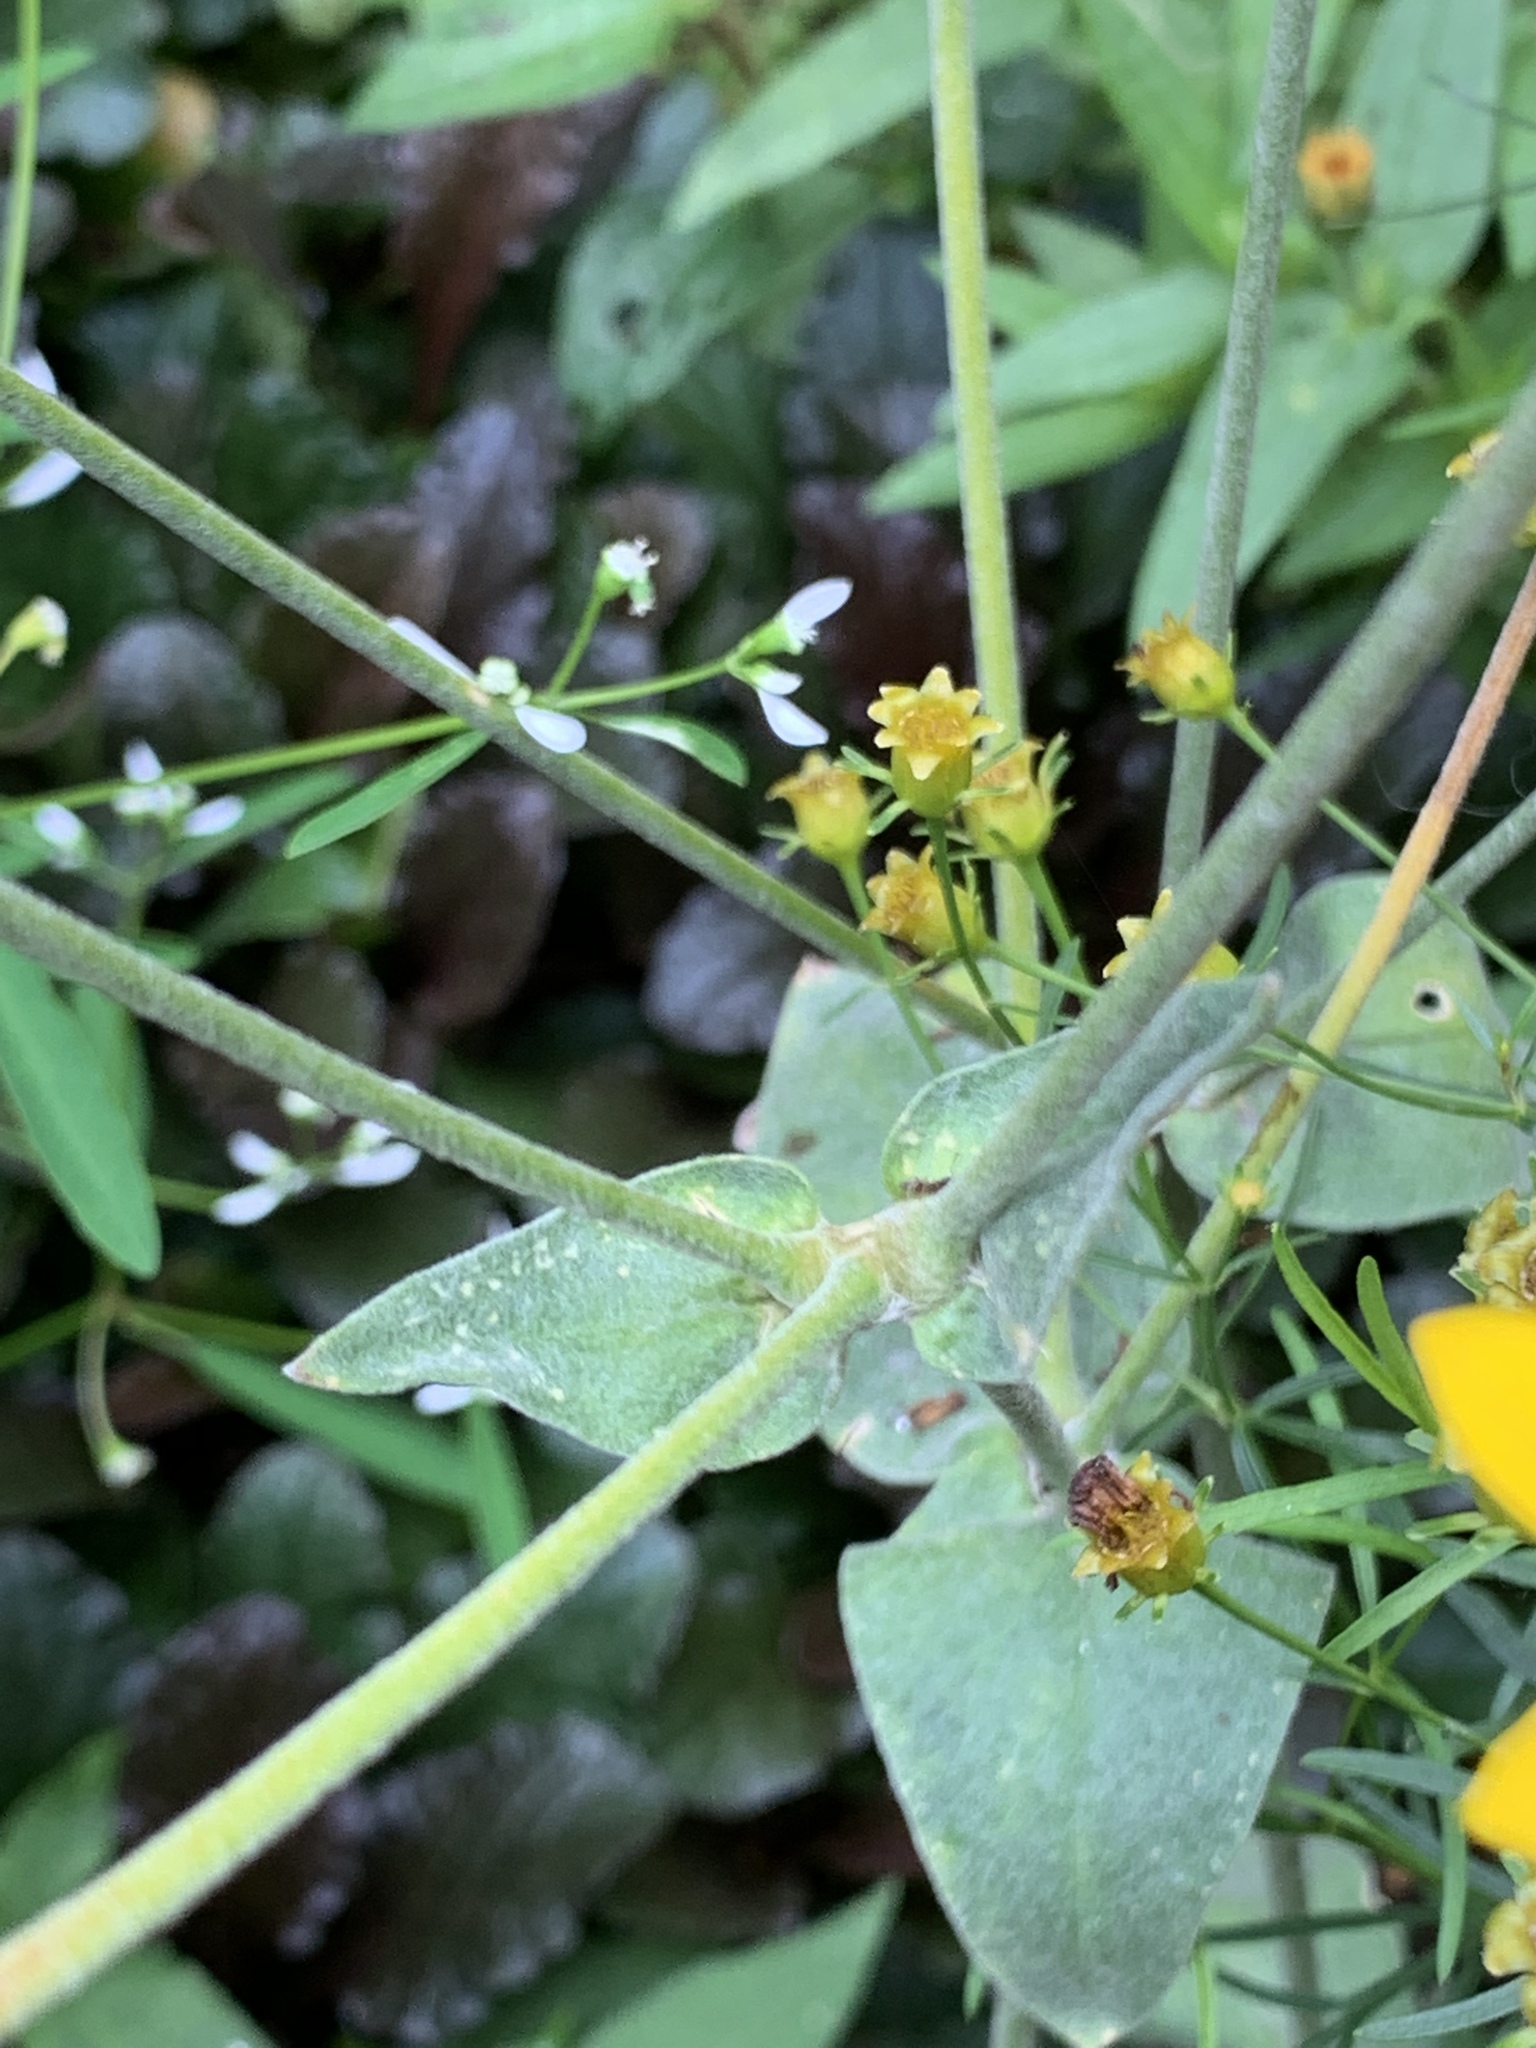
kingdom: Plantae
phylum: Tracheophyta
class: Magnoliopsida
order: Caryophyllales
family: Caryophyllaceae
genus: Silene
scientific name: Silene coronaria
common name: Rose campion
